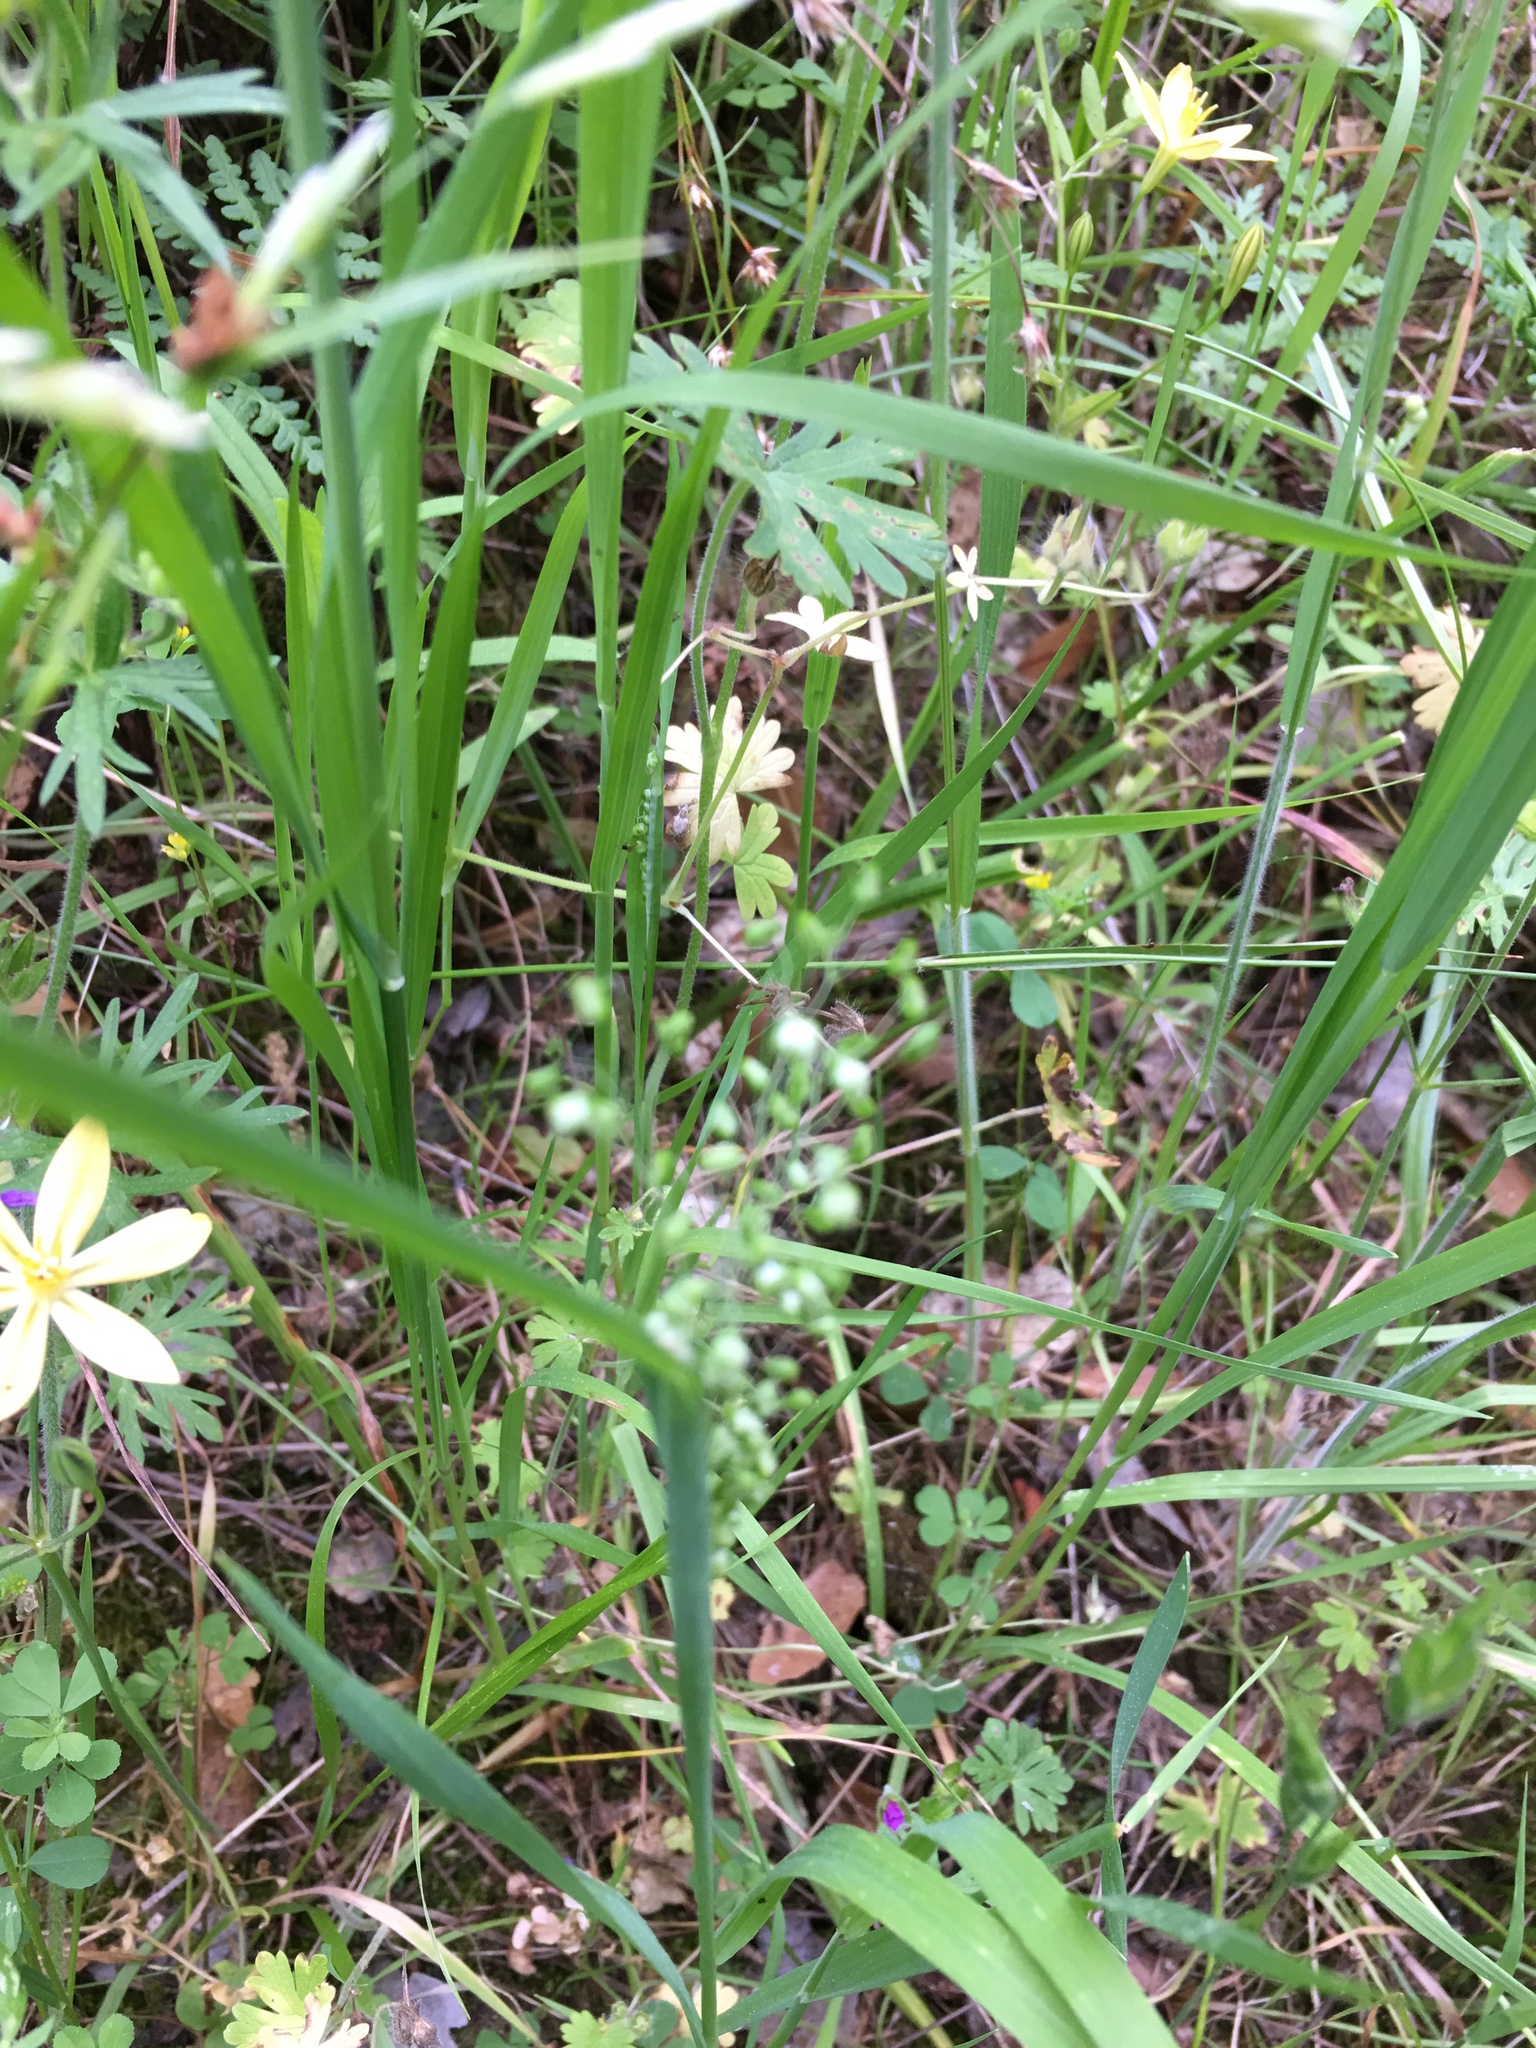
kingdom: Plantae
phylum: Tracheophyta
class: Liliopsida
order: Poales
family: Poaceae
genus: Briza
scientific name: Briza minor
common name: Lesser quaking-grass
